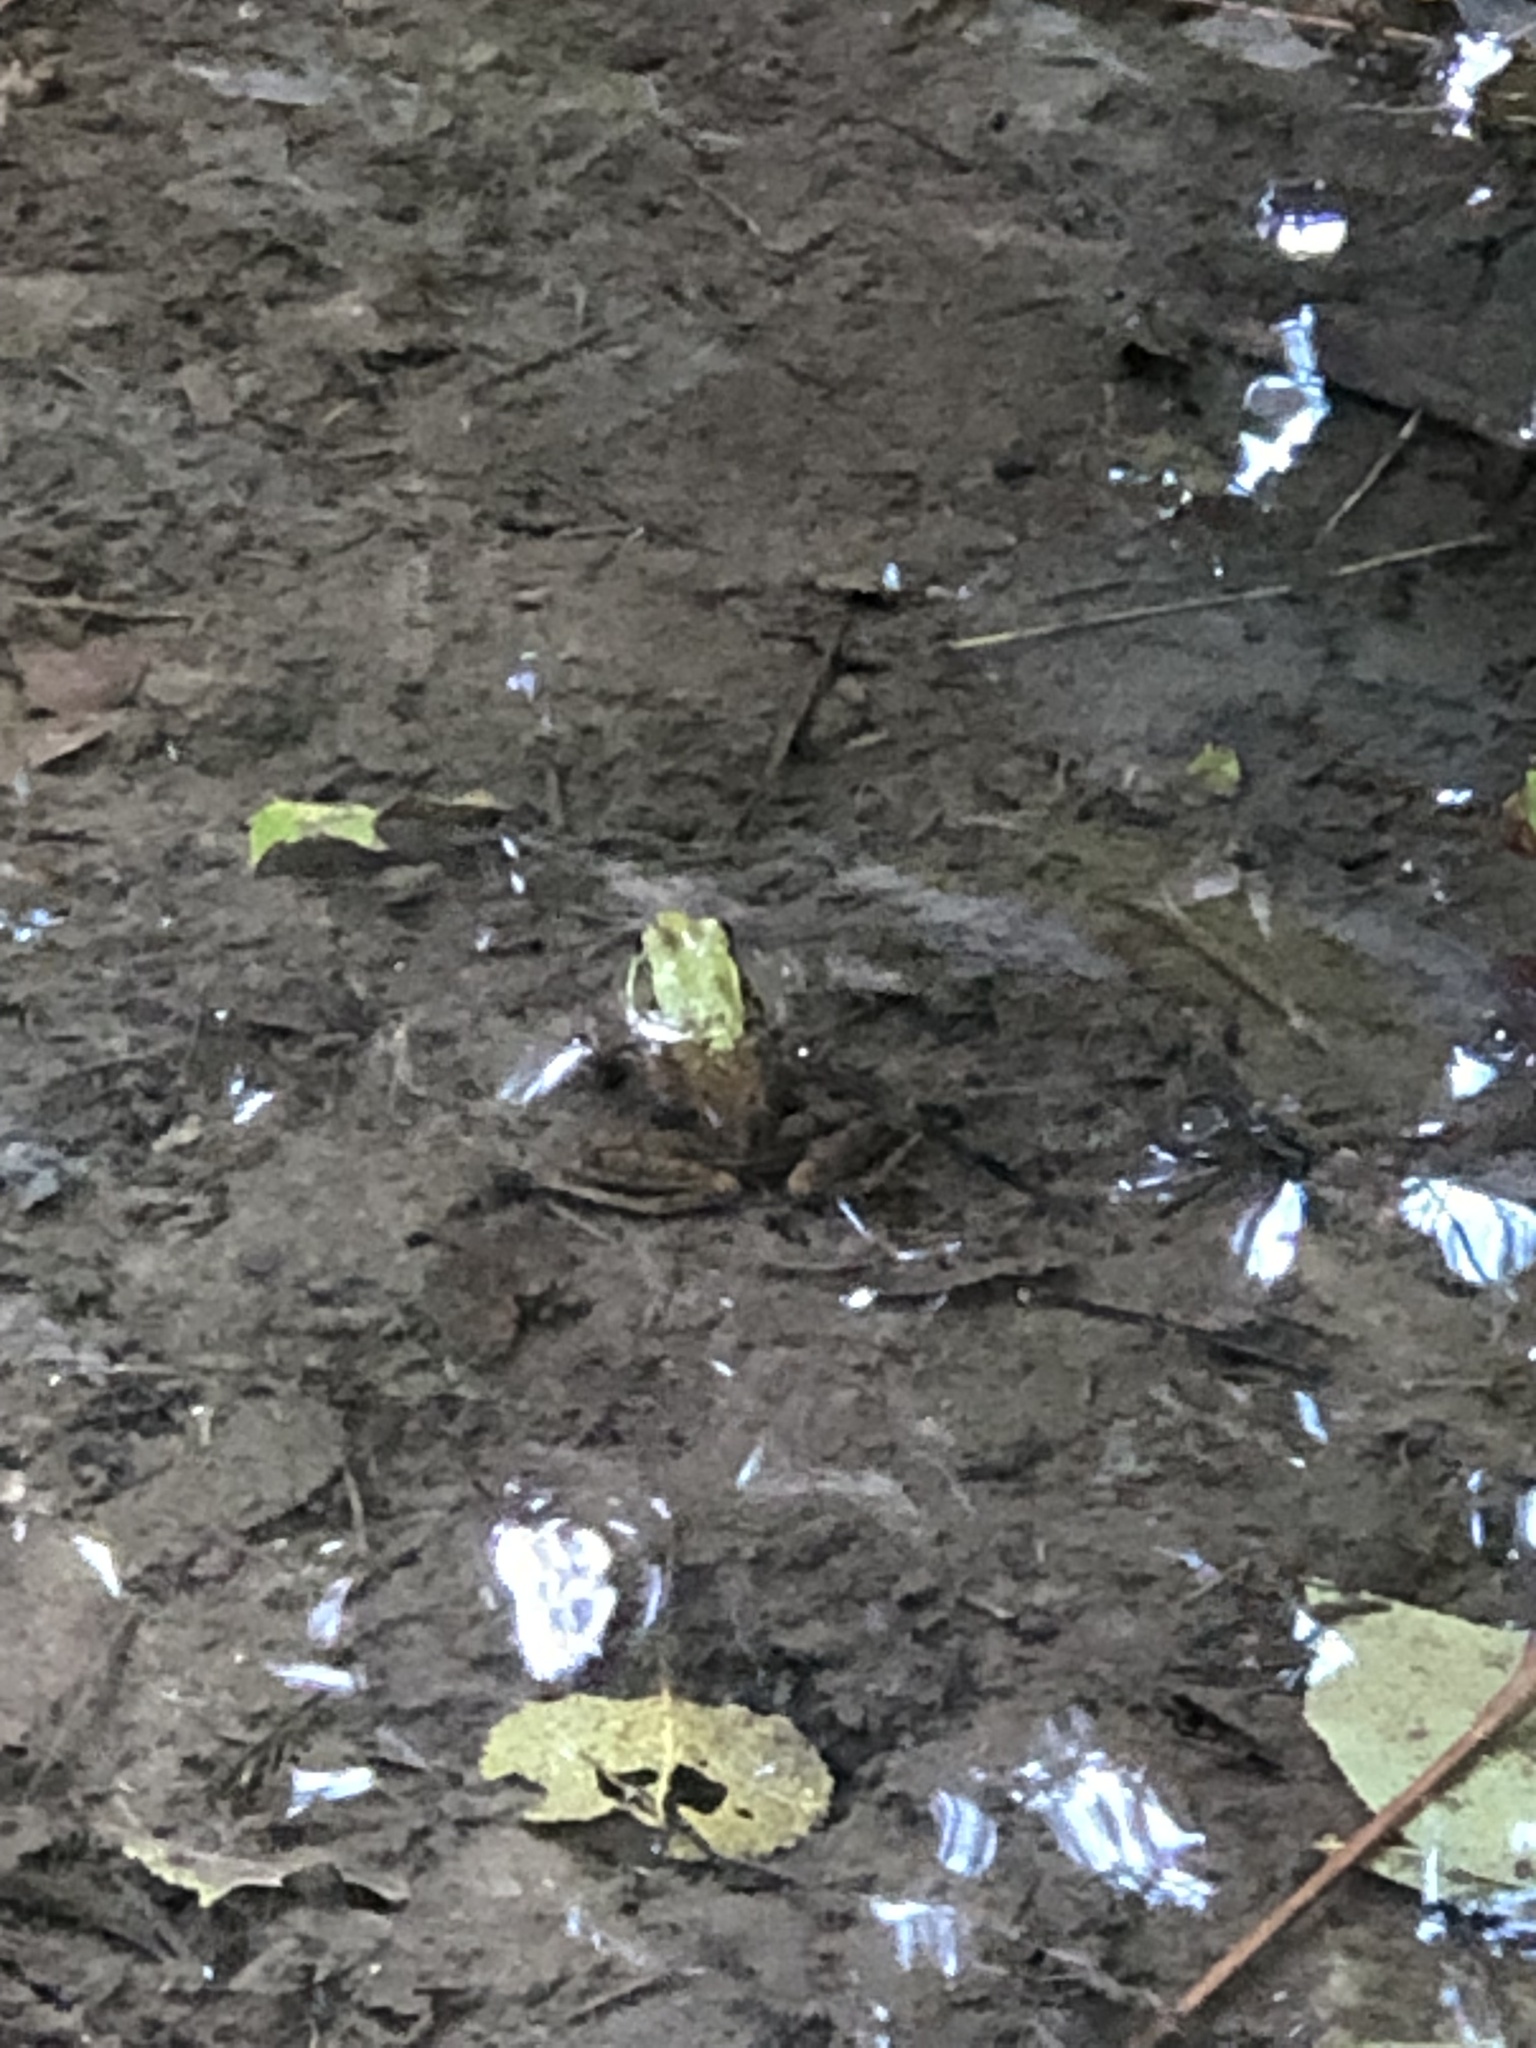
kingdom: Animalia
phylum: Chordata
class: Amphibia
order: Anura
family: Ranidae
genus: Lithobates
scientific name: Lithobates clamitans
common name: Green frog
